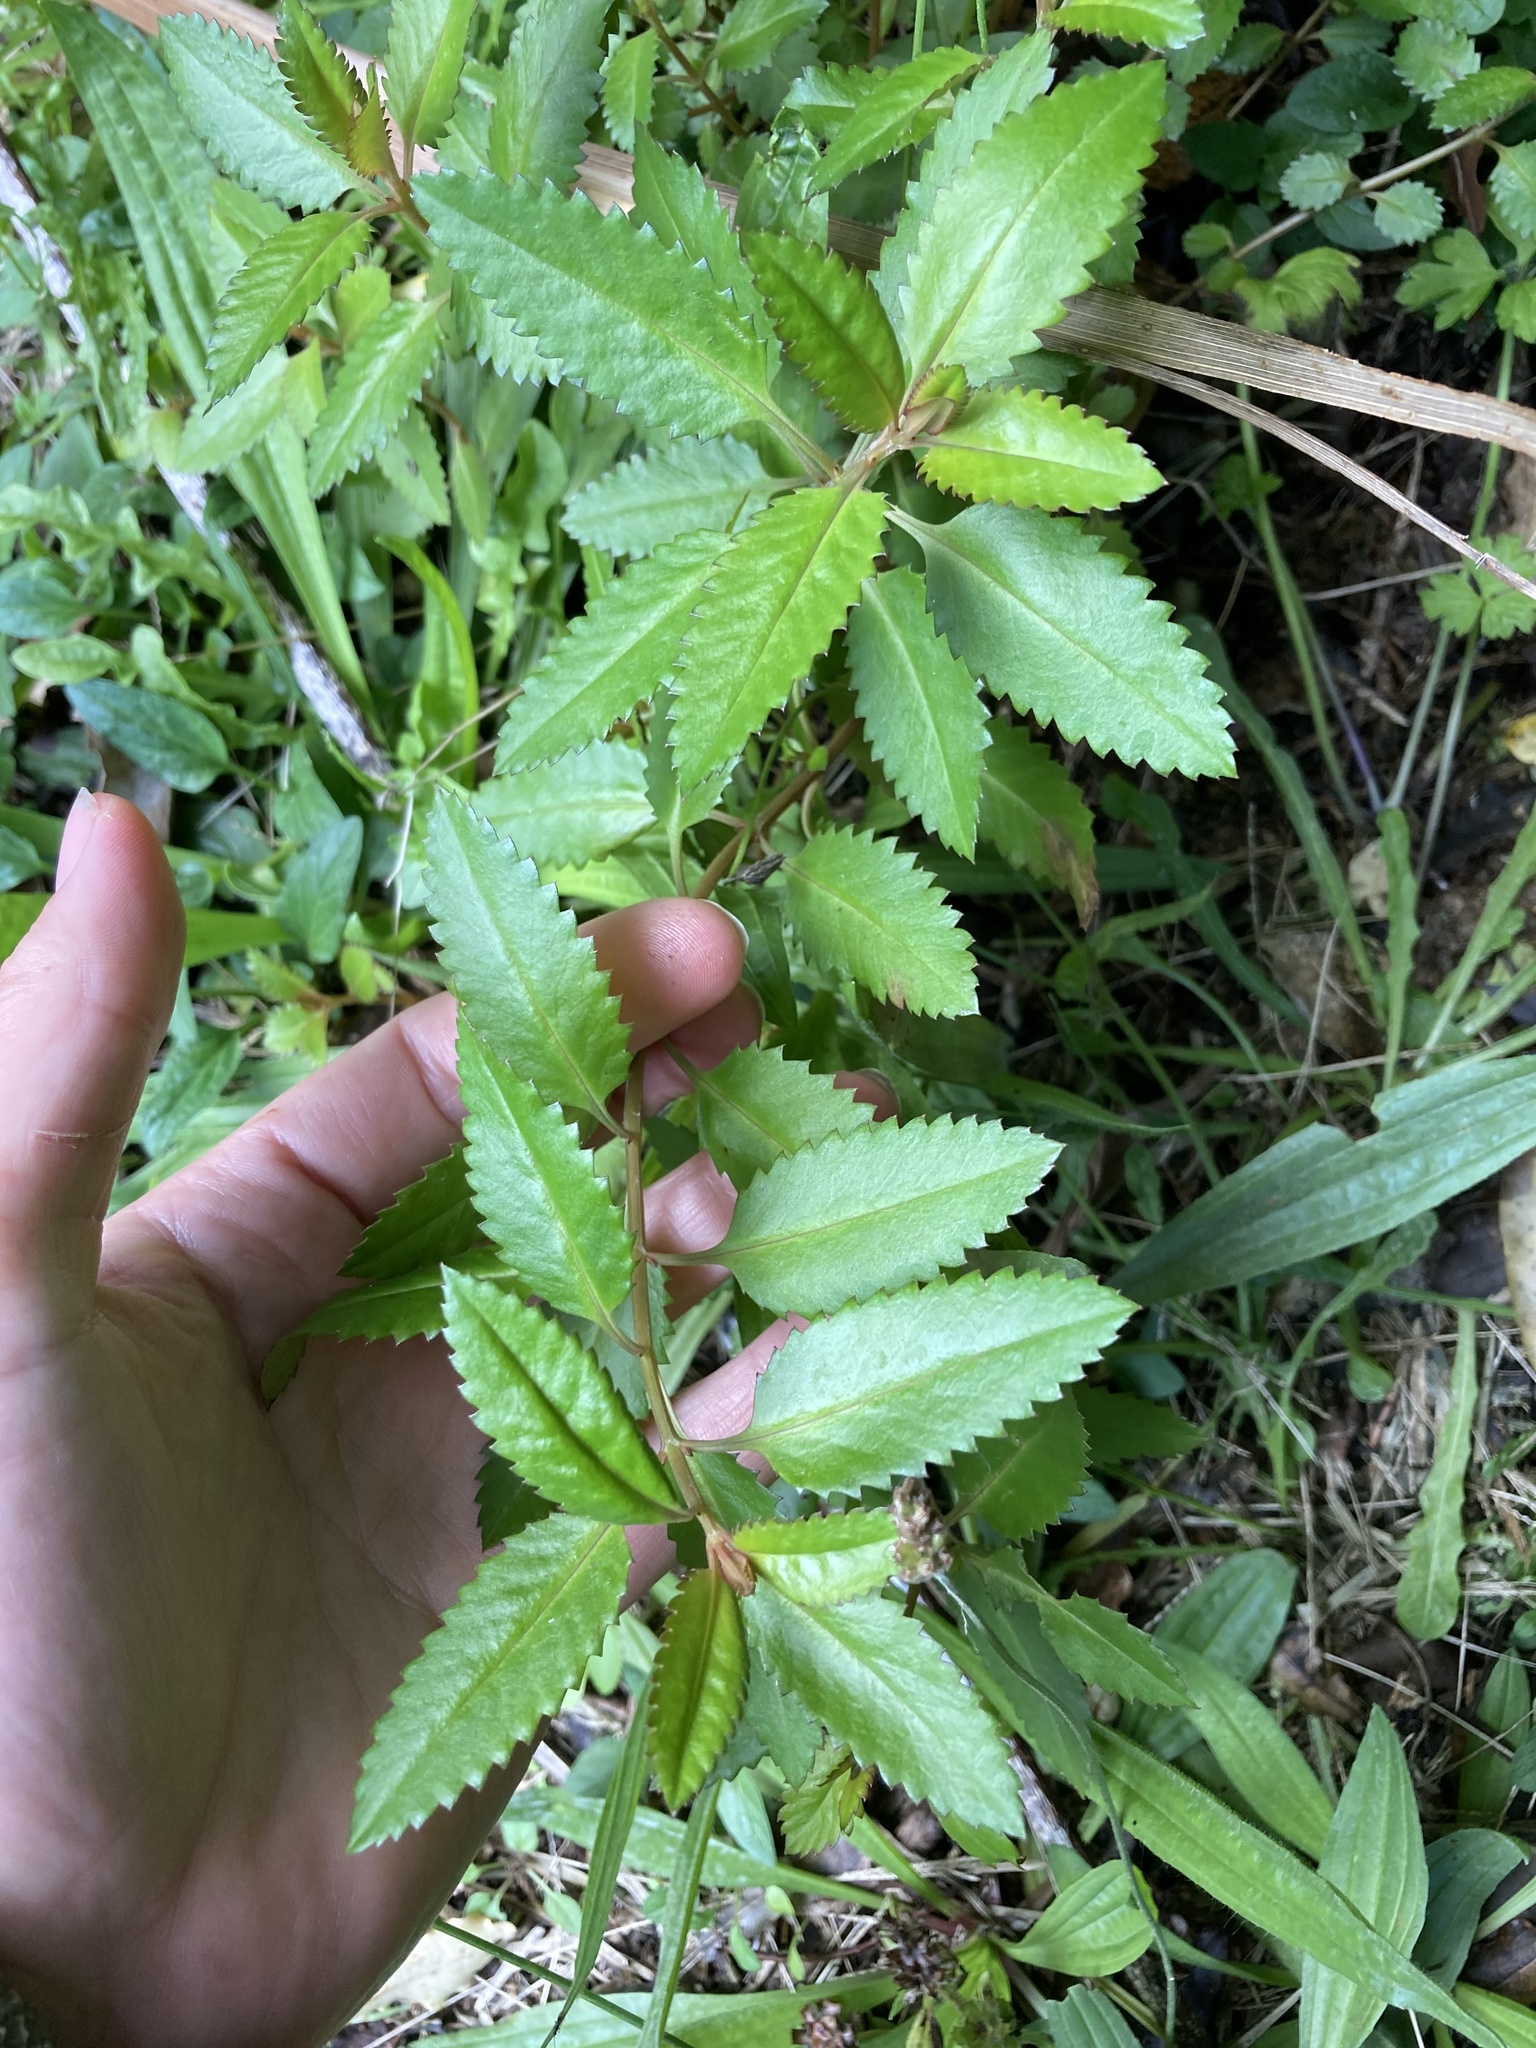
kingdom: Plantae
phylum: Tracheophyta
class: Magnoliopsida
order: Saxifragales
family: Haloragaceae
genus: Haloragis
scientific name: Haloragis erecta
